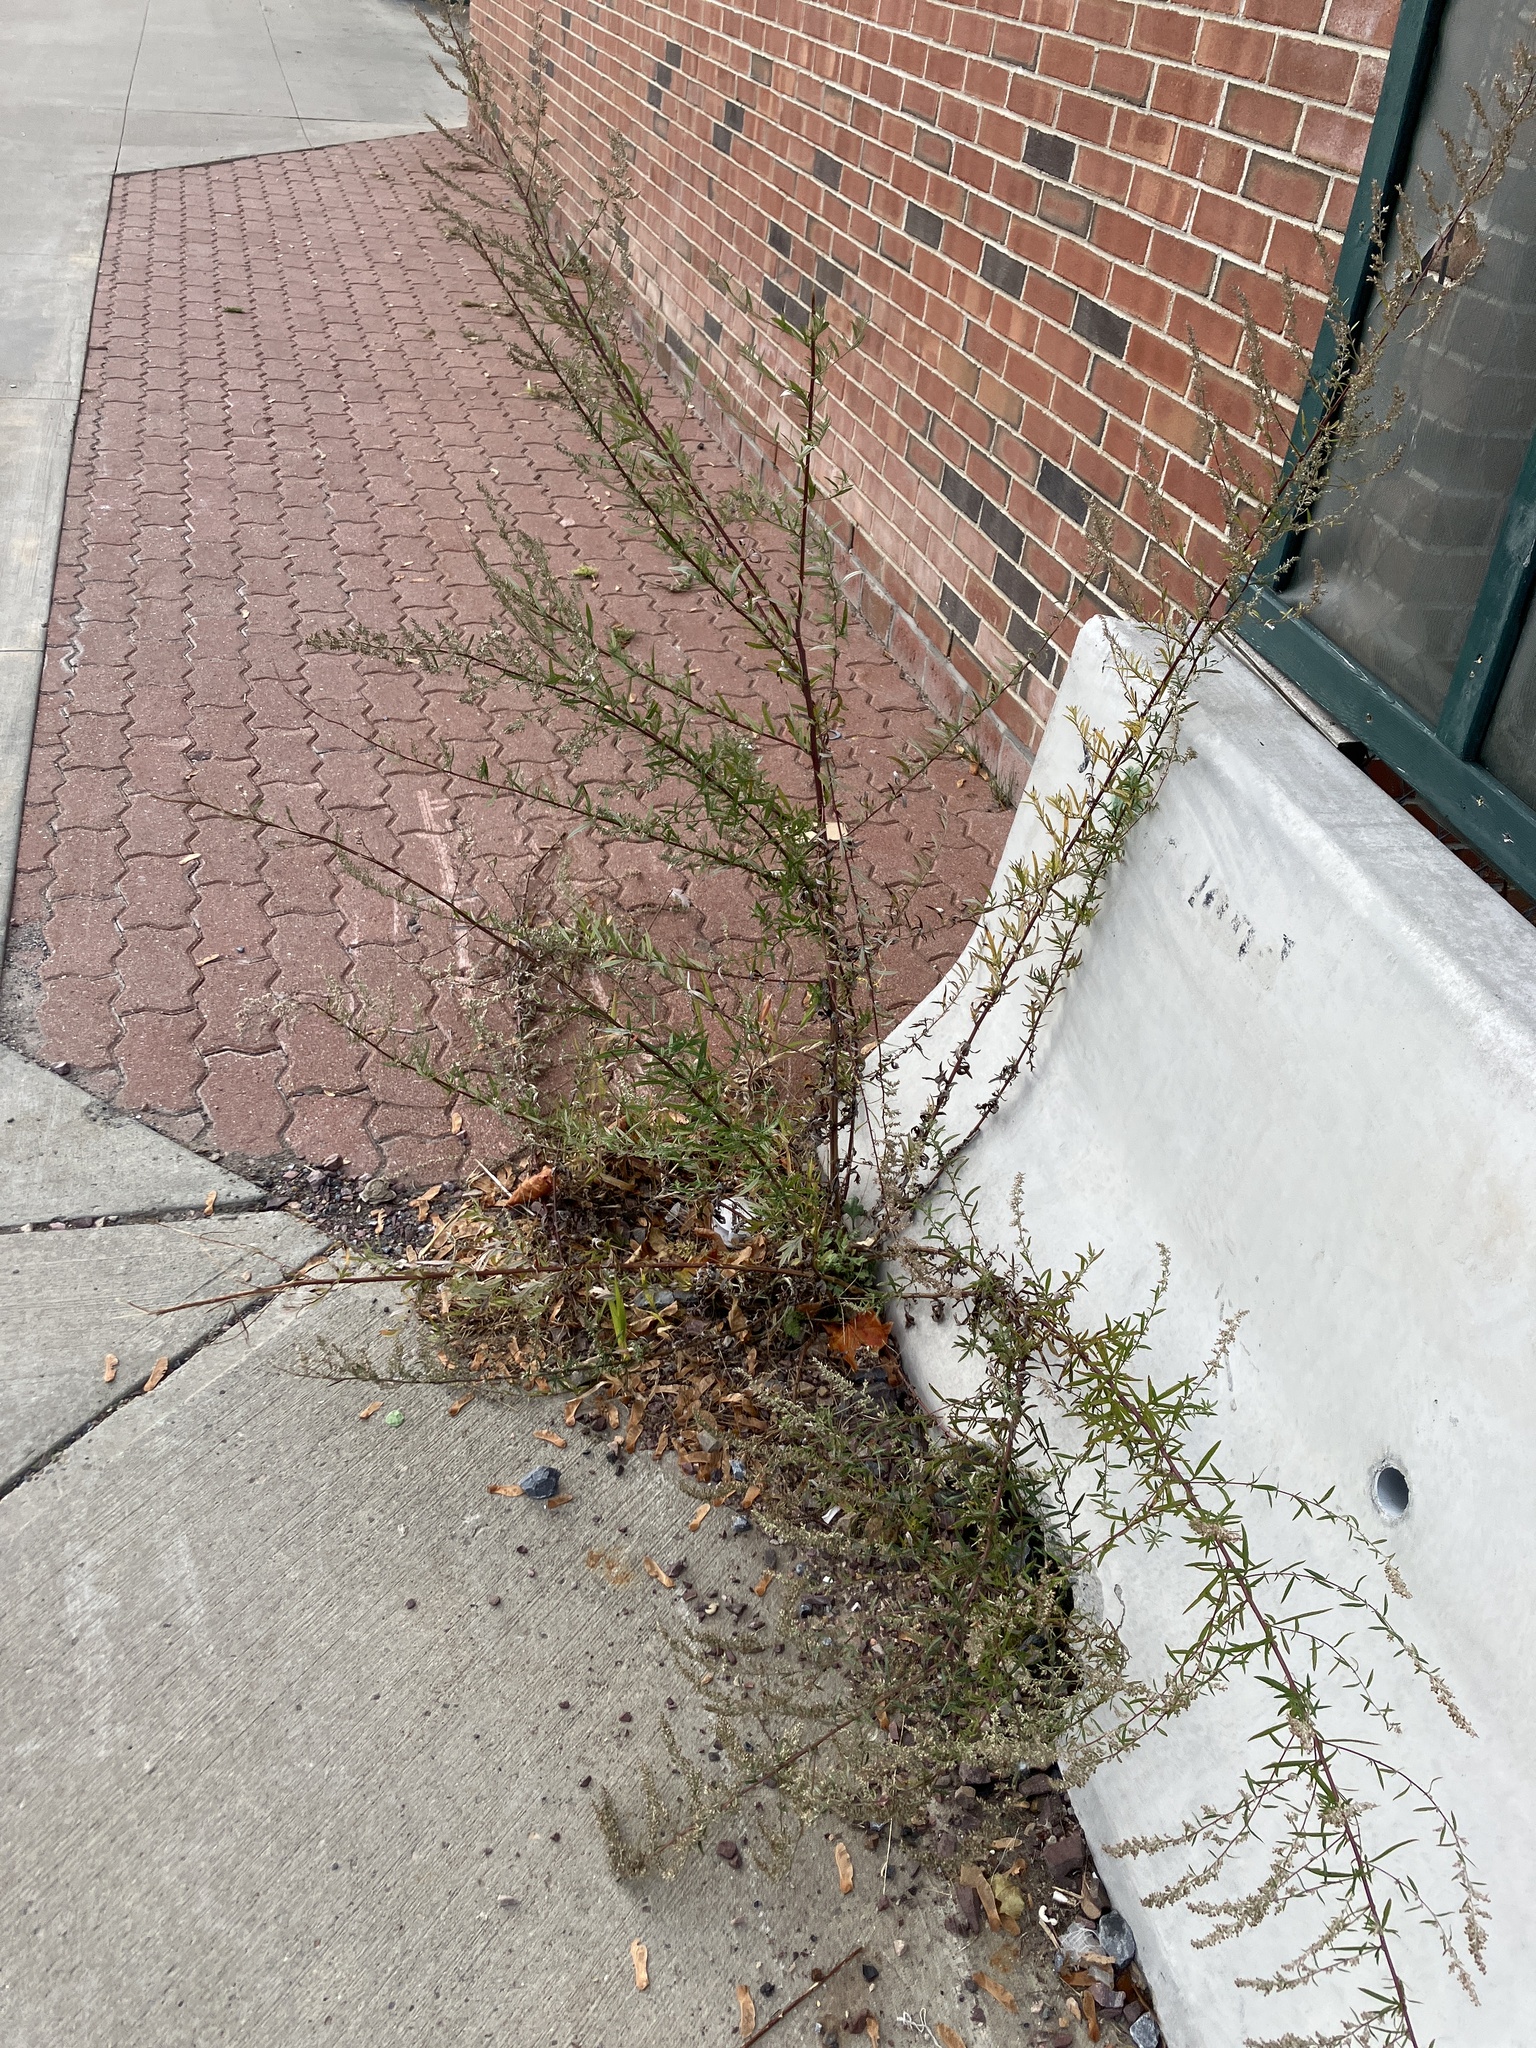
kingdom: Plantae
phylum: Tracheophyta
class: Magnoliopsida
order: Asterales
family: Asteraceae
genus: Artemisia
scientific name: Artemisia vulgaris
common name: Mugwort
